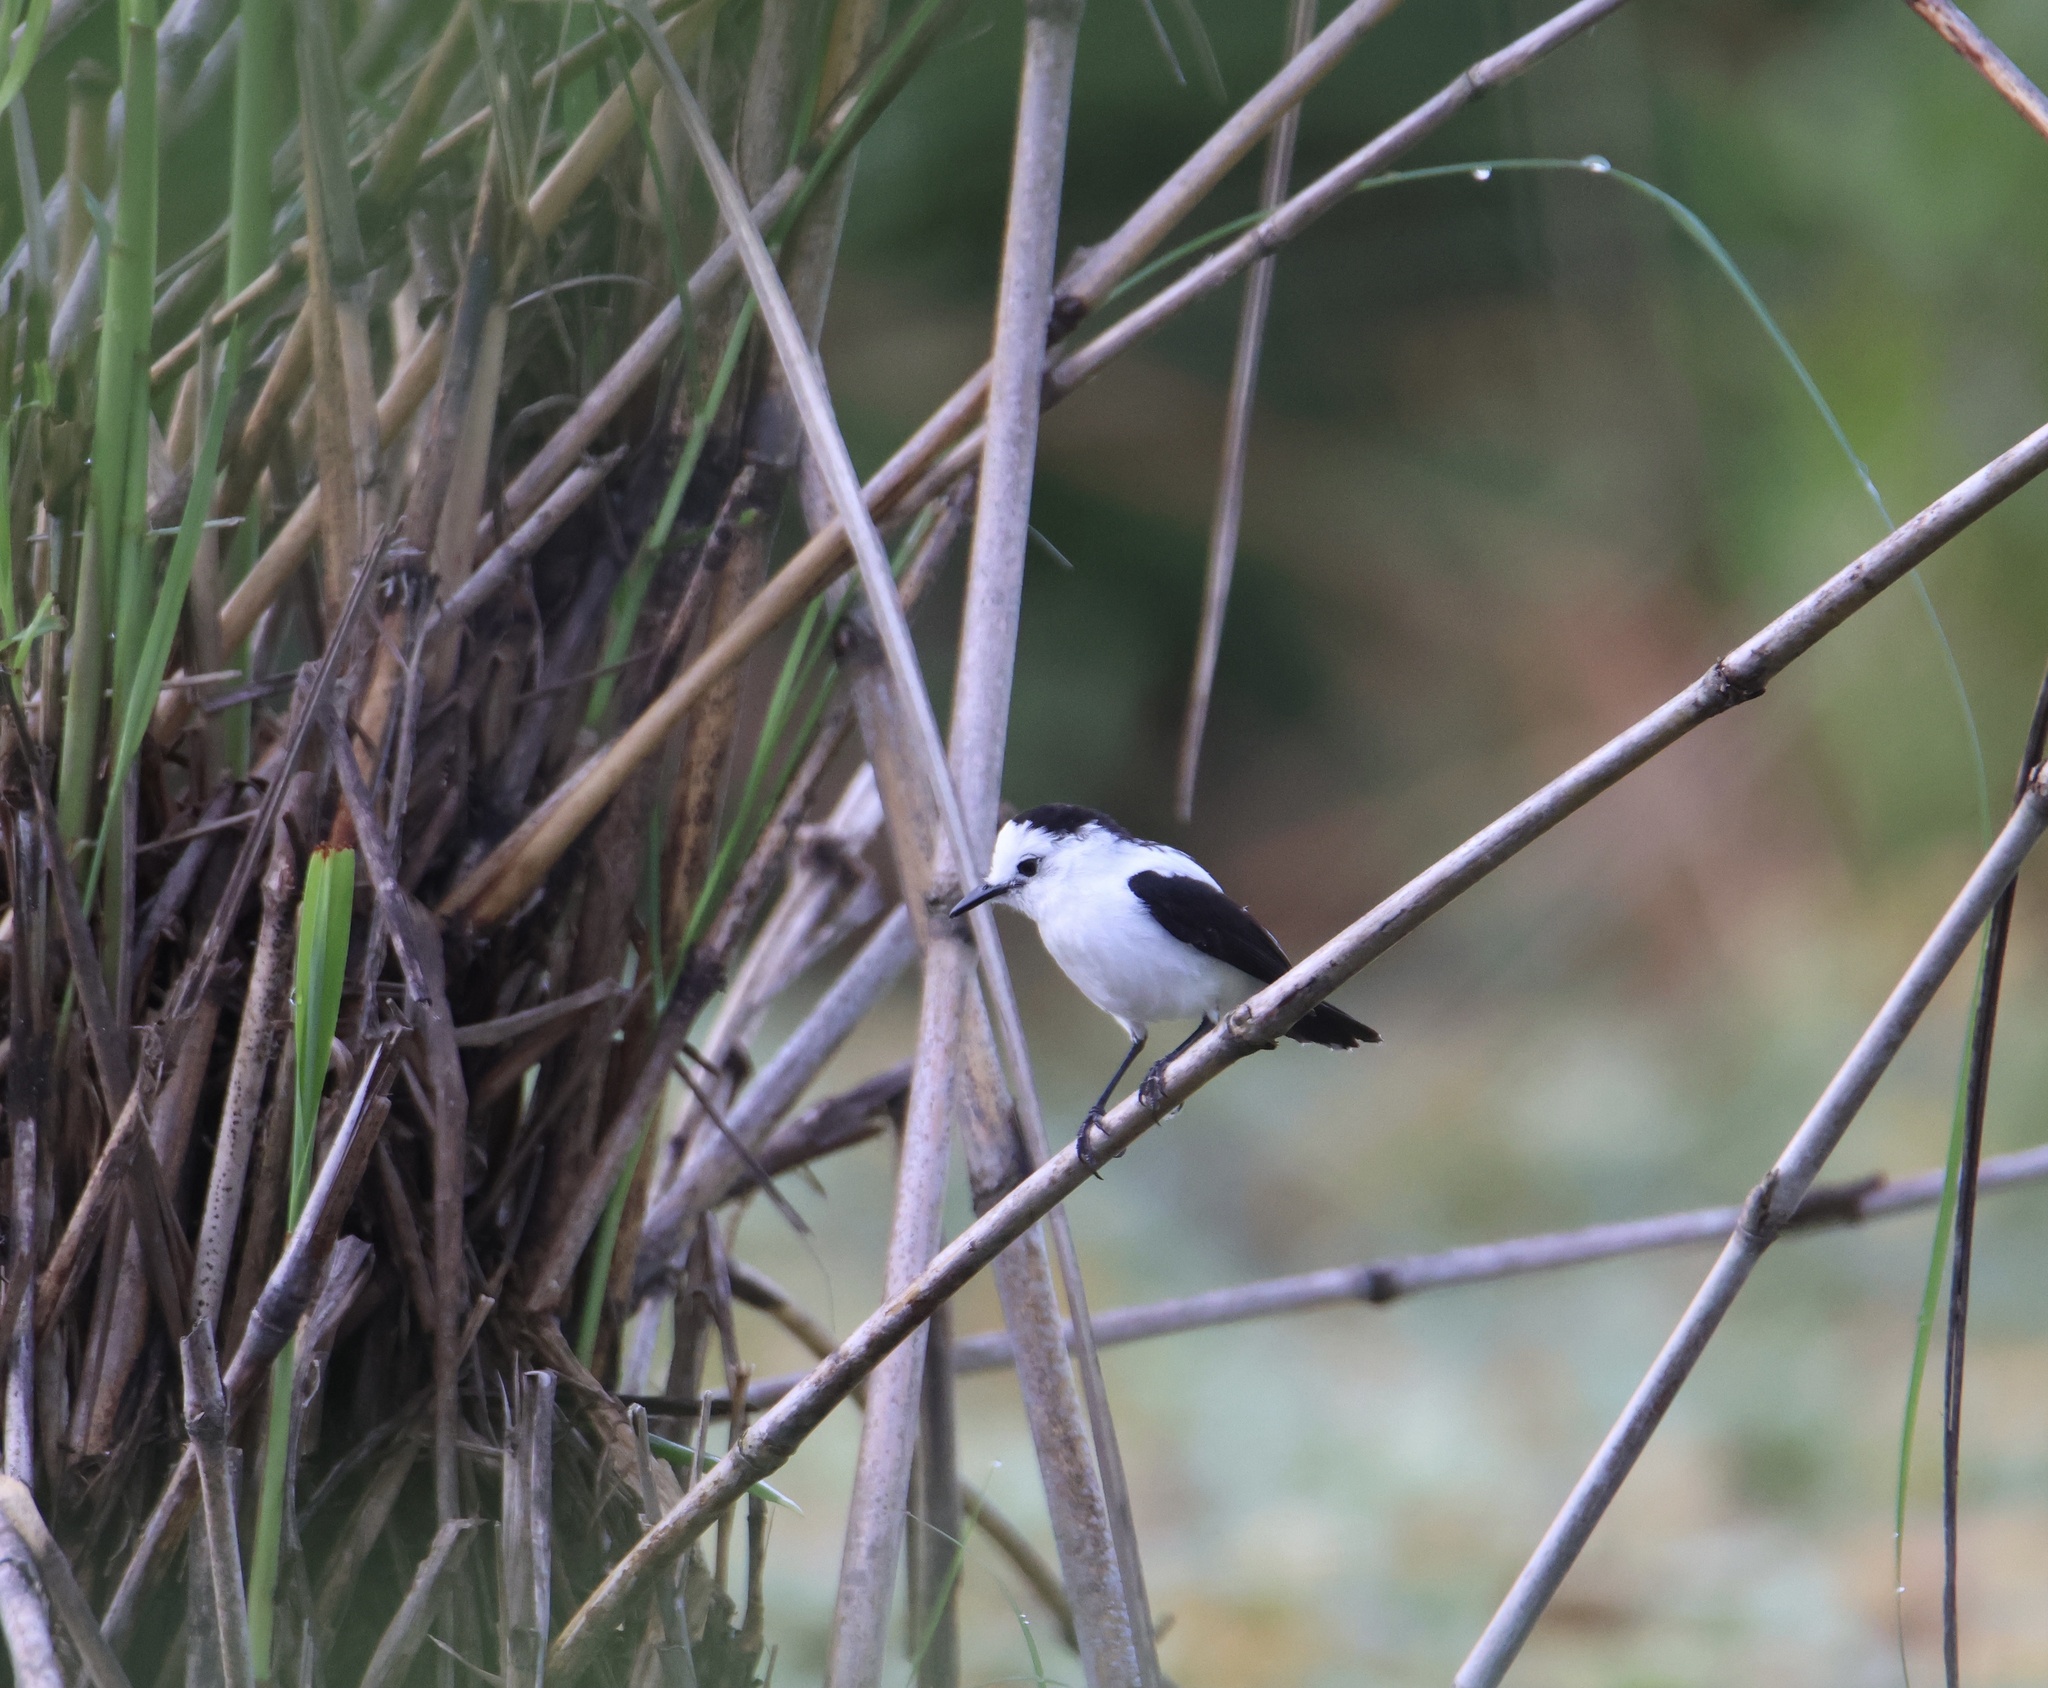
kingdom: Animalia
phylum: Chordata
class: Aves
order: Passeriformes
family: Tyrannidae
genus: Fluvicola
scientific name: Fluvicola pica
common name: Pied water-tyrant
